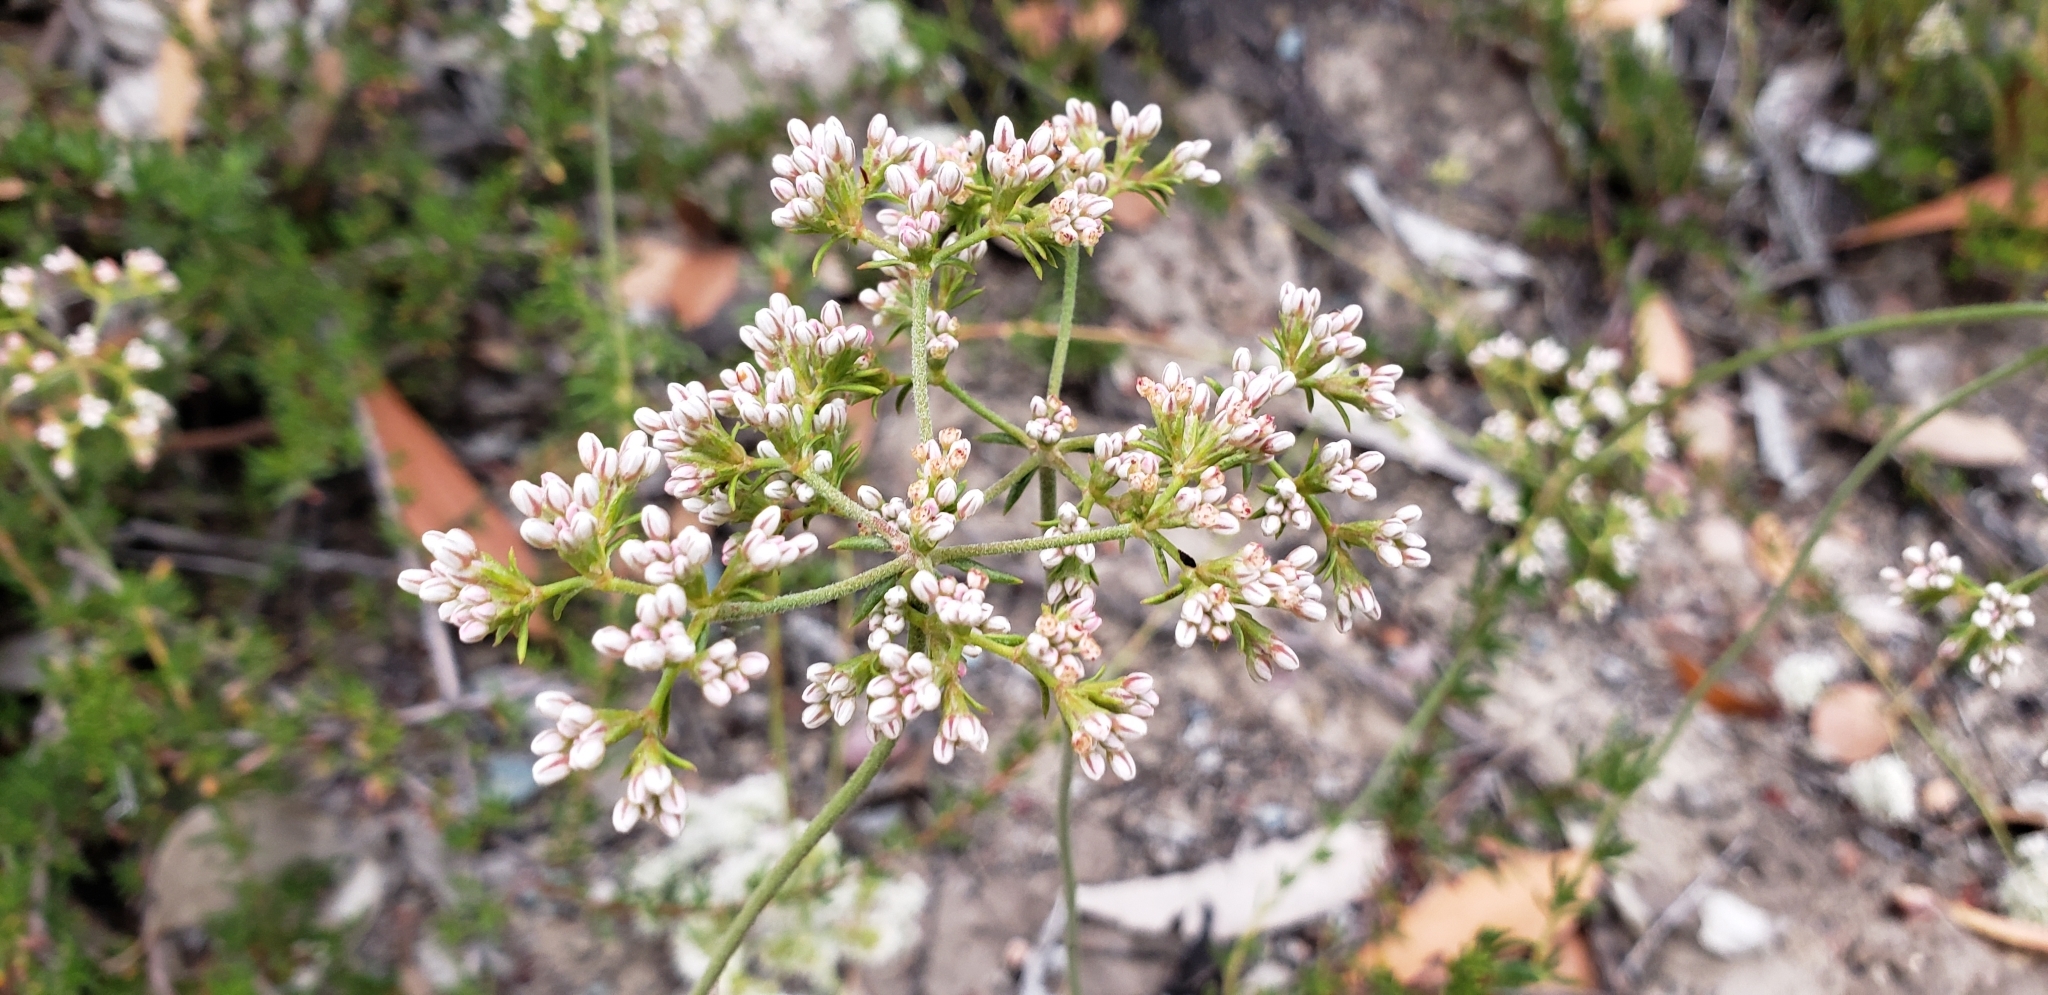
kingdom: Plantae
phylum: Tracheophyta
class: Magnoliopsida
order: Caryophyllales
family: Polygonaceae
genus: Eriogonum
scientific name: Eriogonum fasciculatum
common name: California wild buckwheat
